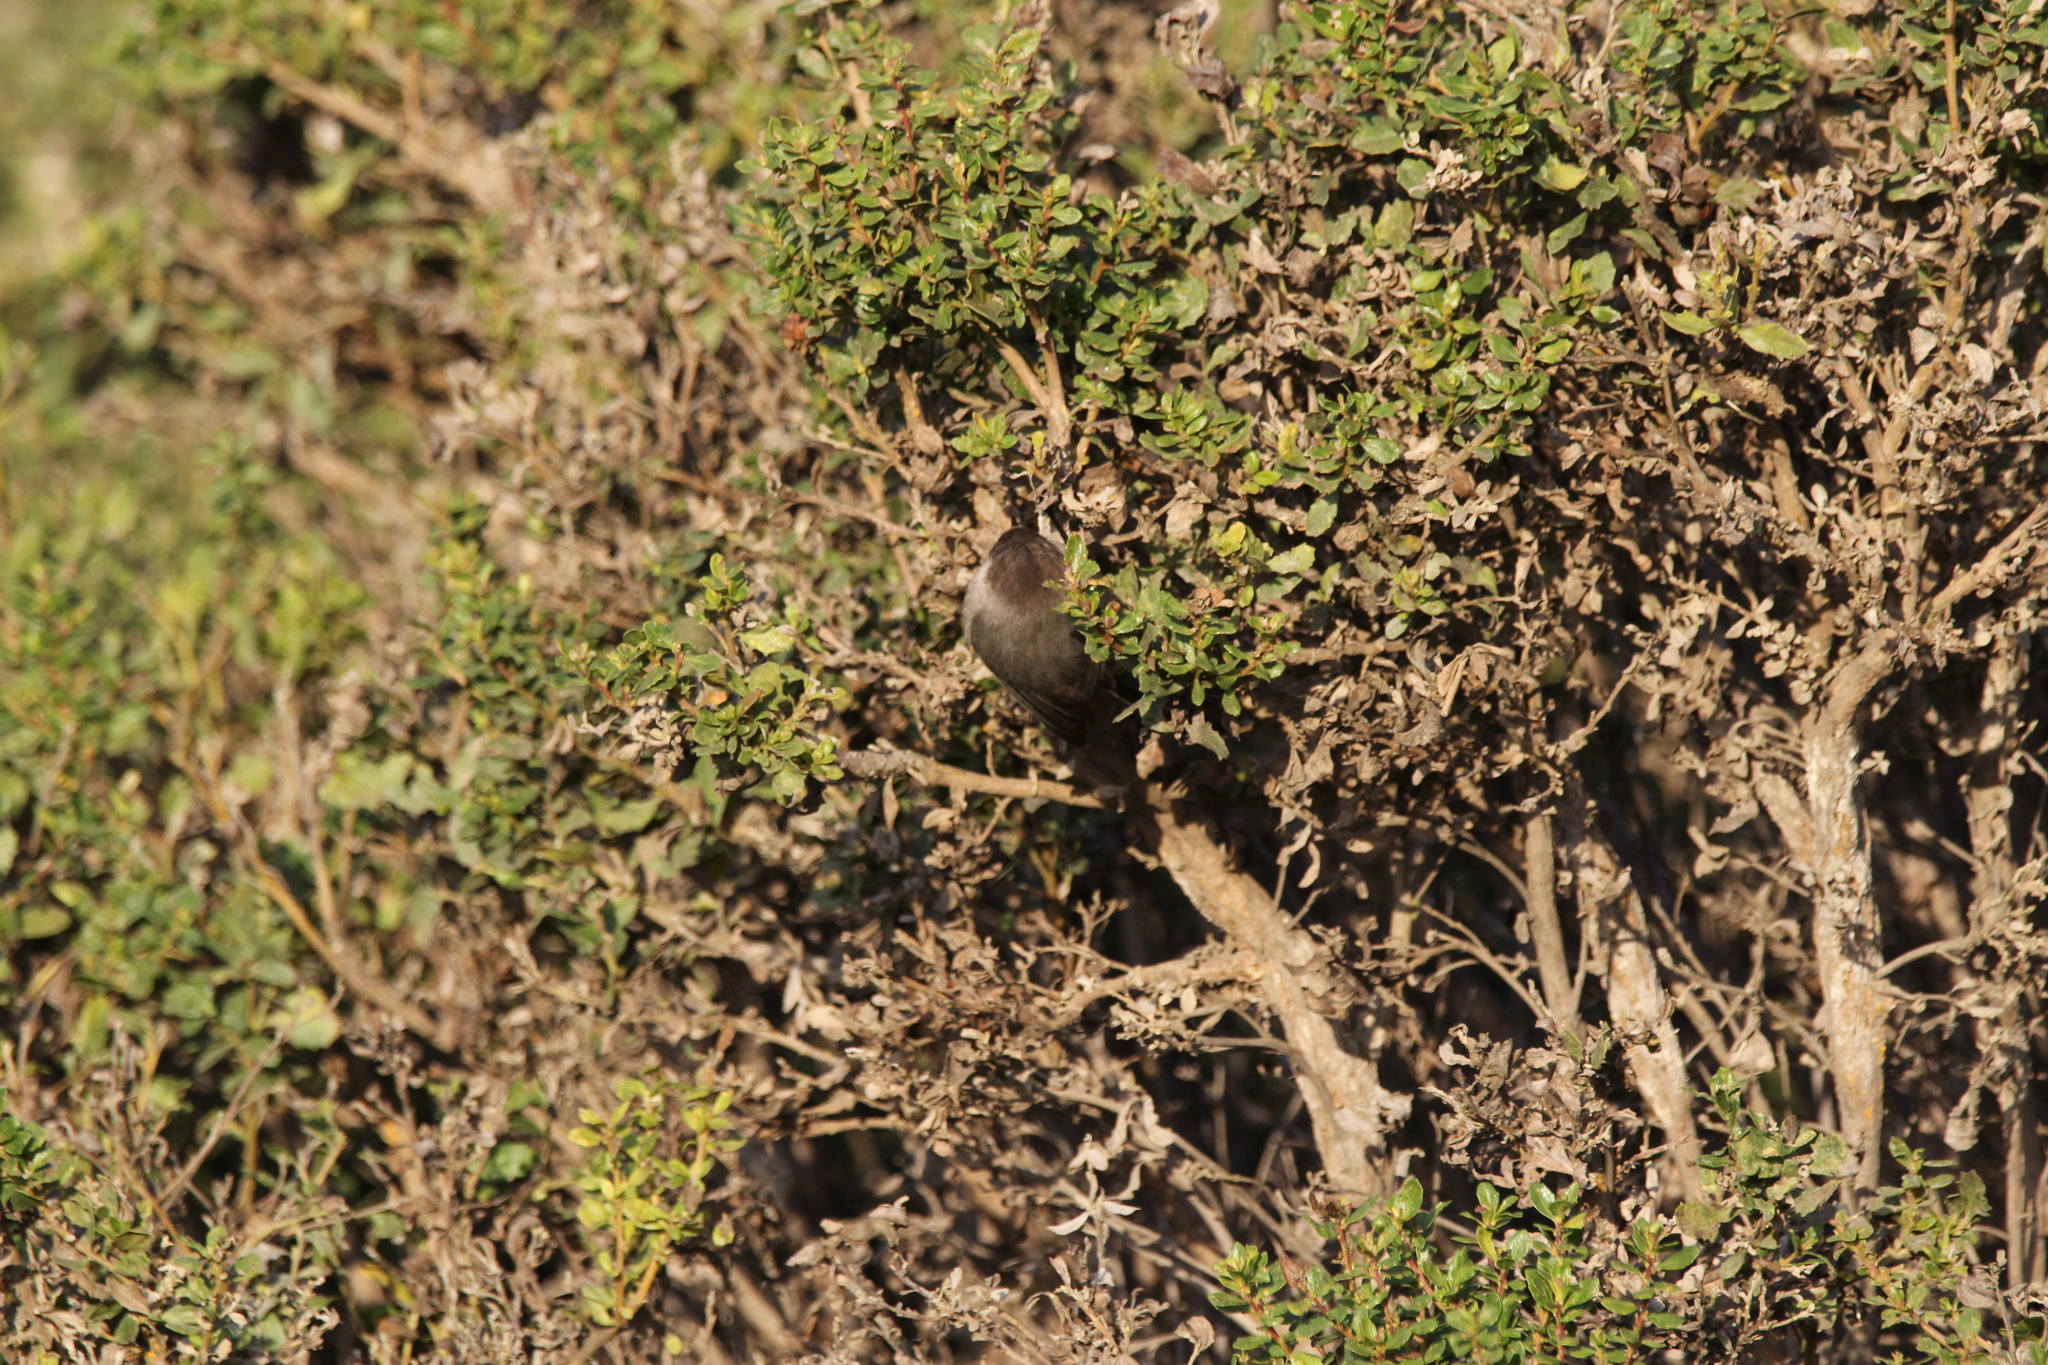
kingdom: Animalia
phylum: Chordata
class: Aves
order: Passeriformes
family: Aegithalidae
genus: Psaltriparus
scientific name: Psaltriparus minimus
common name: American bushtit
